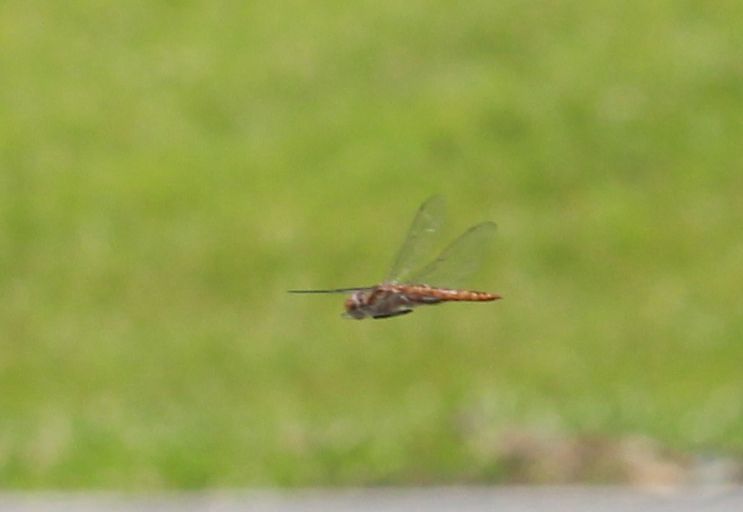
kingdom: Animalia
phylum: Arthropoda
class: Insecta
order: Odonata
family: Libellulidae
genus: Pantala
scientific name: Pantala hymenaea
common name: Spot-winged glider
